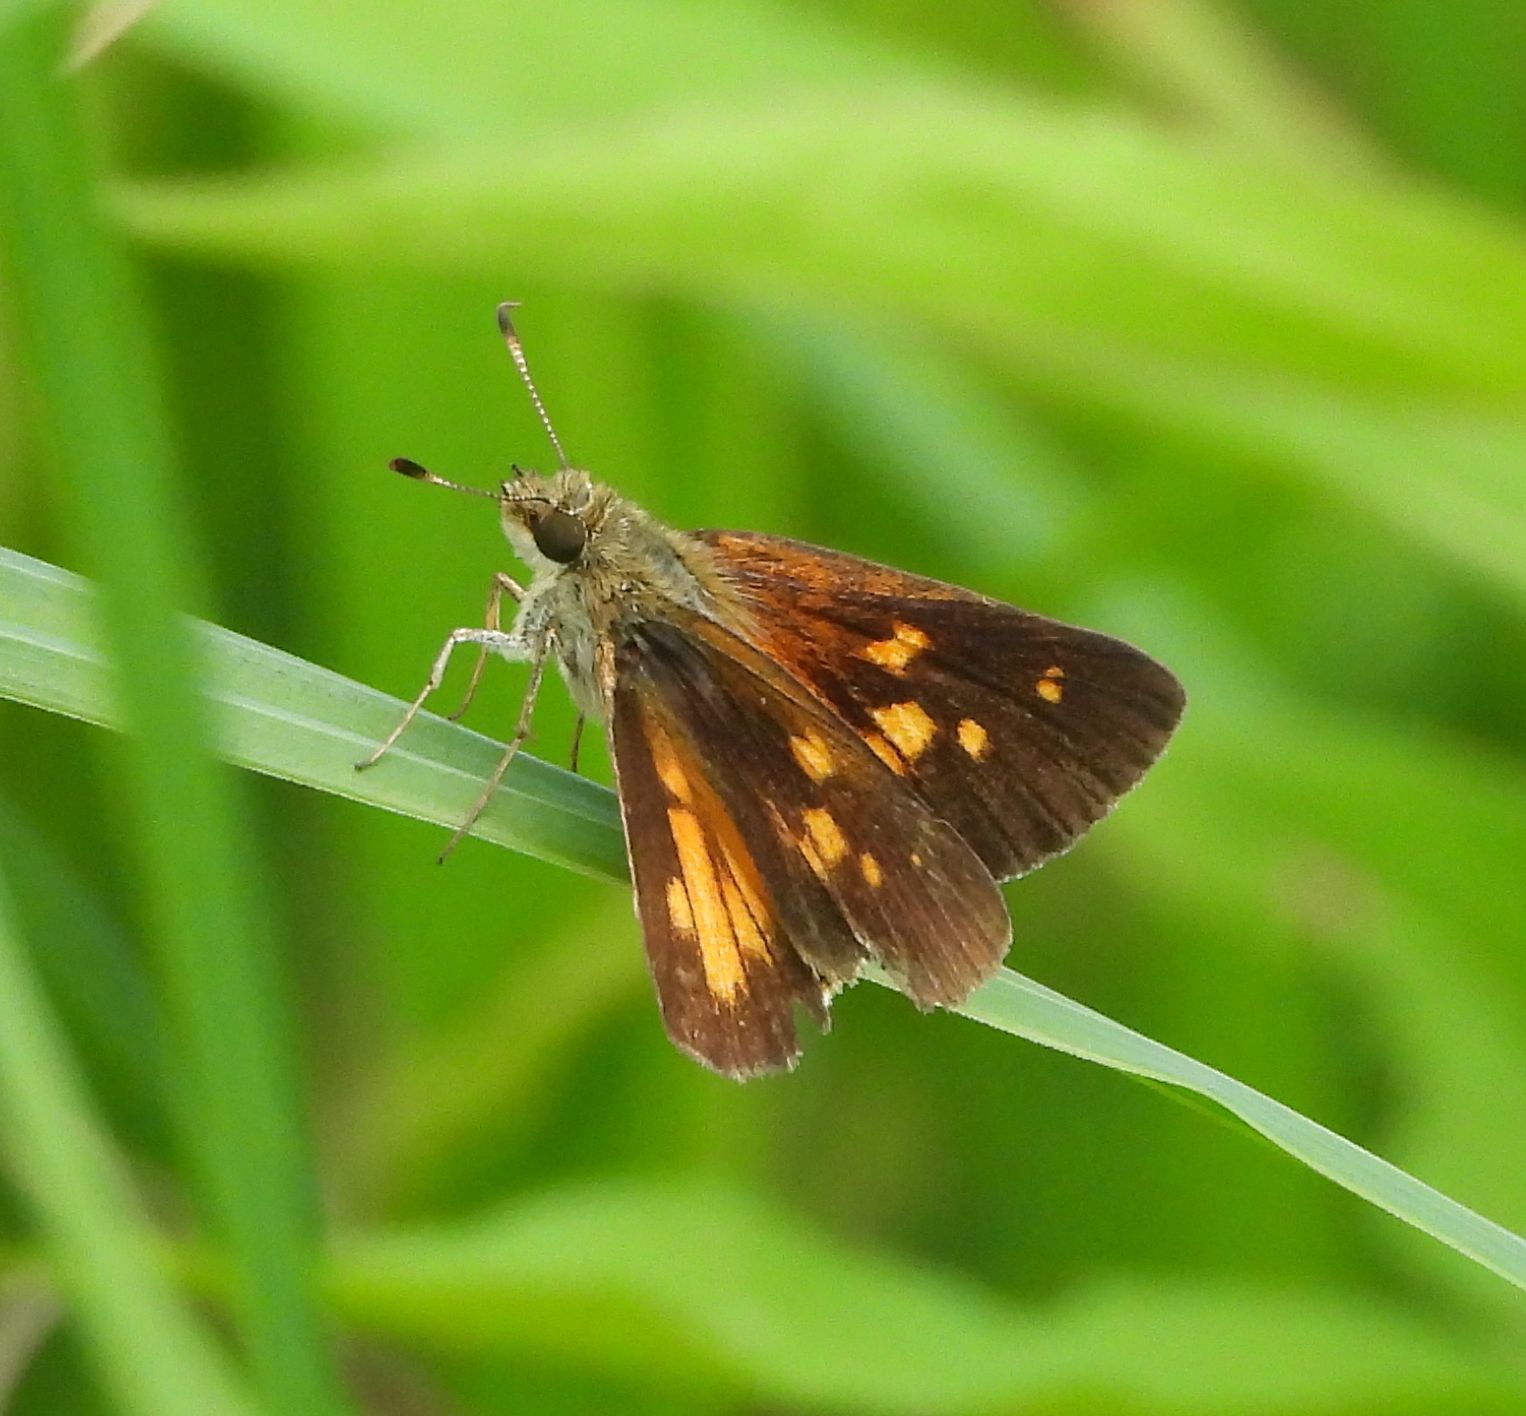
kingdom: Animalia
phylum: Arthropoda
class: Insecta
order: Lepidoptera
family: Hesperiidae
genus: Poanes
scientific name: Poanes viator
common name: Broad-winged skipper
